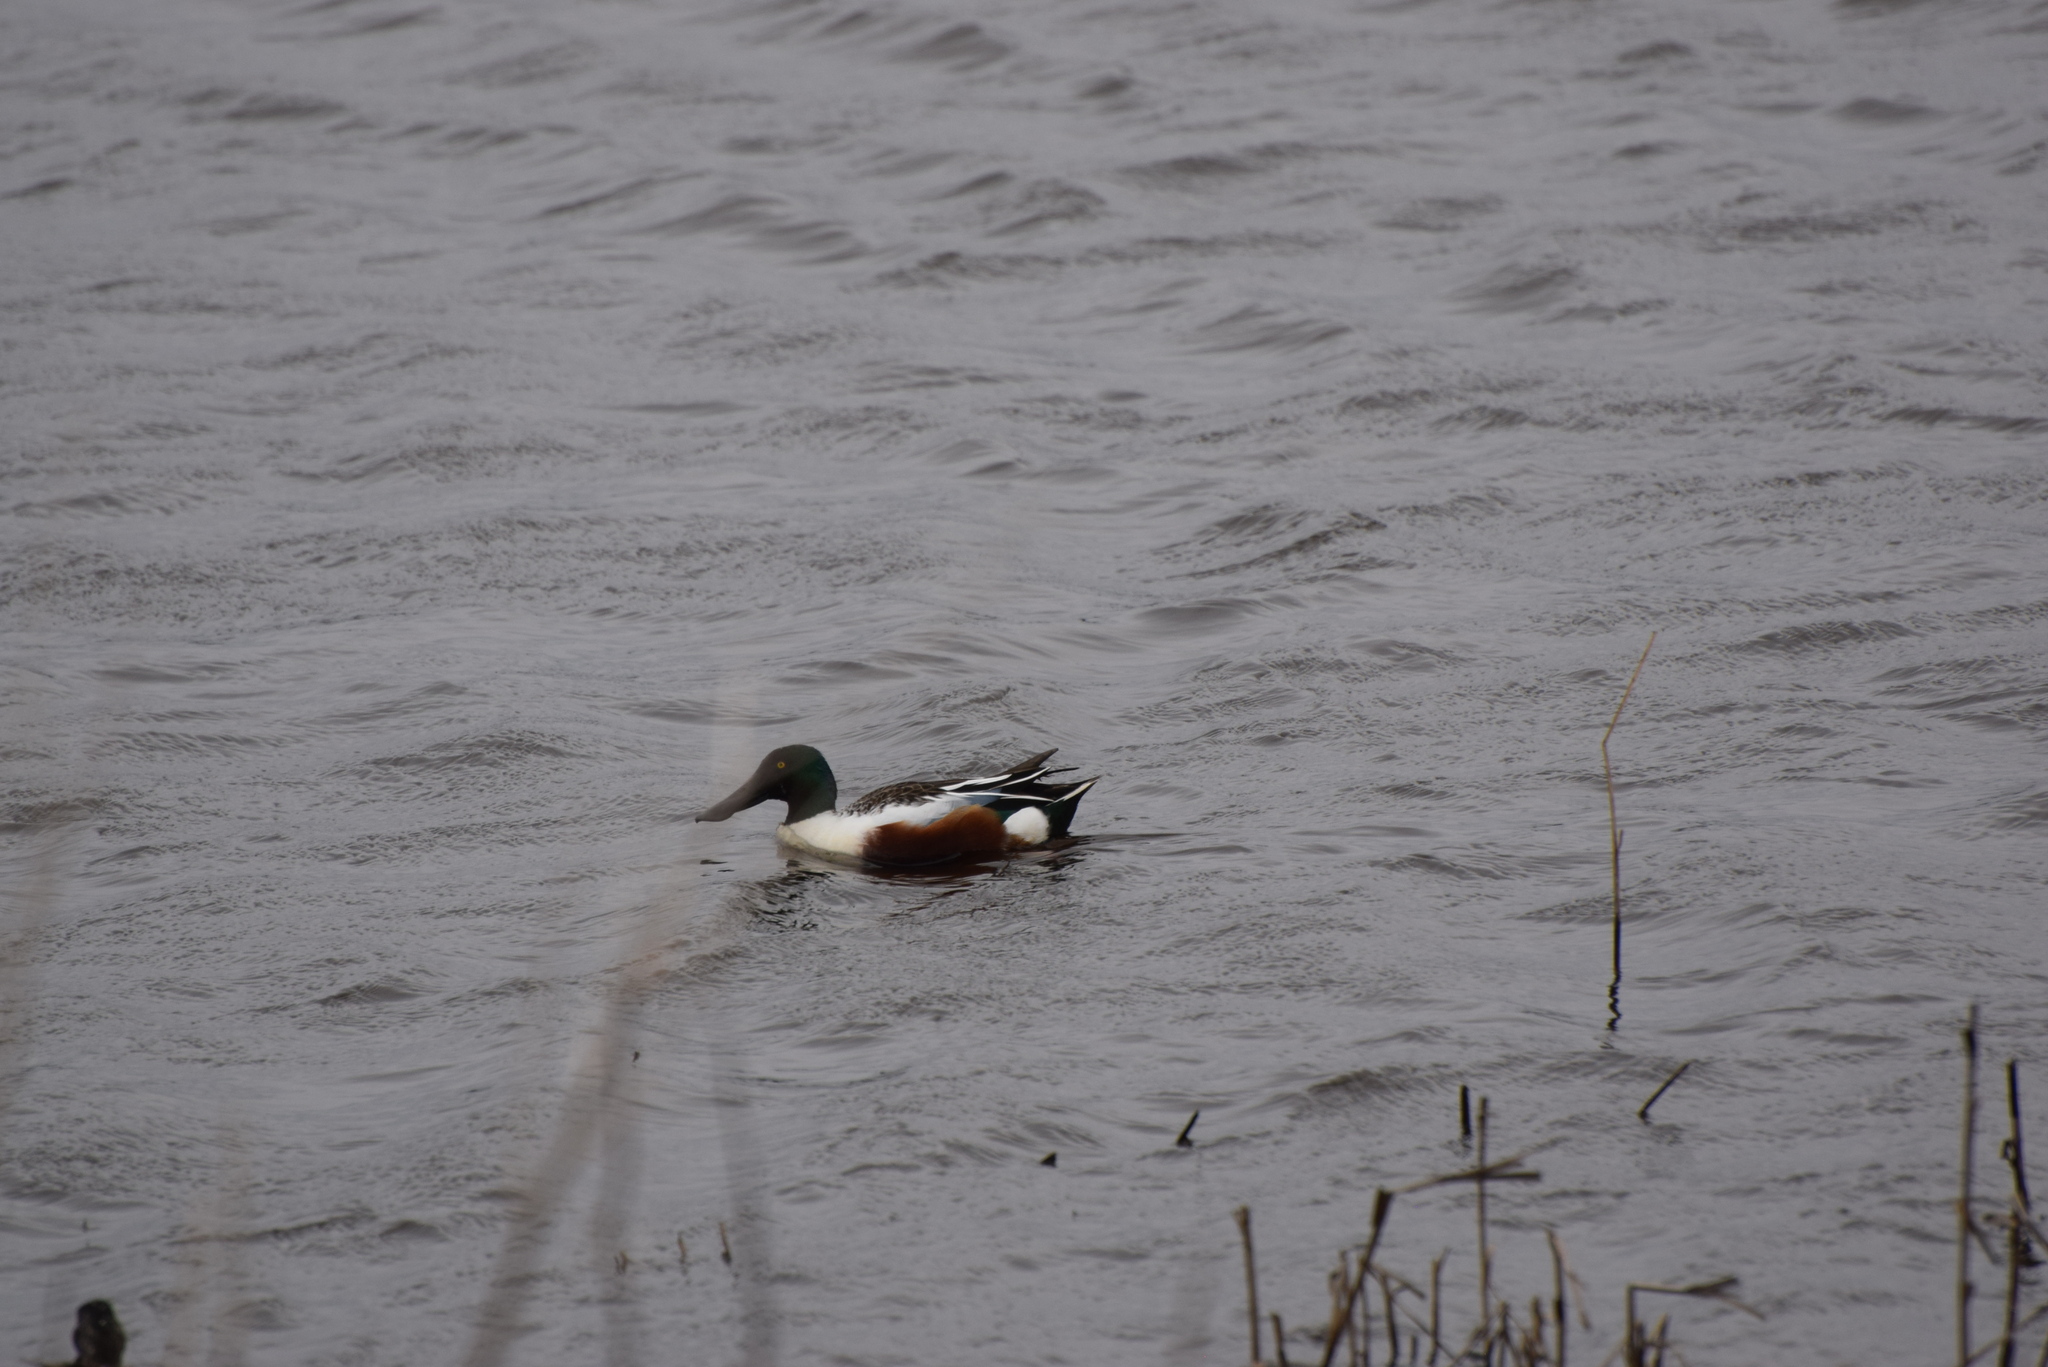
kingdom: Animalia
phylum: Chordata
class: Aves
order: Anseriformes
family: Anatidae
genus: Spatula
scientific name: Spatula clypeata
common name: Northern shoveler
